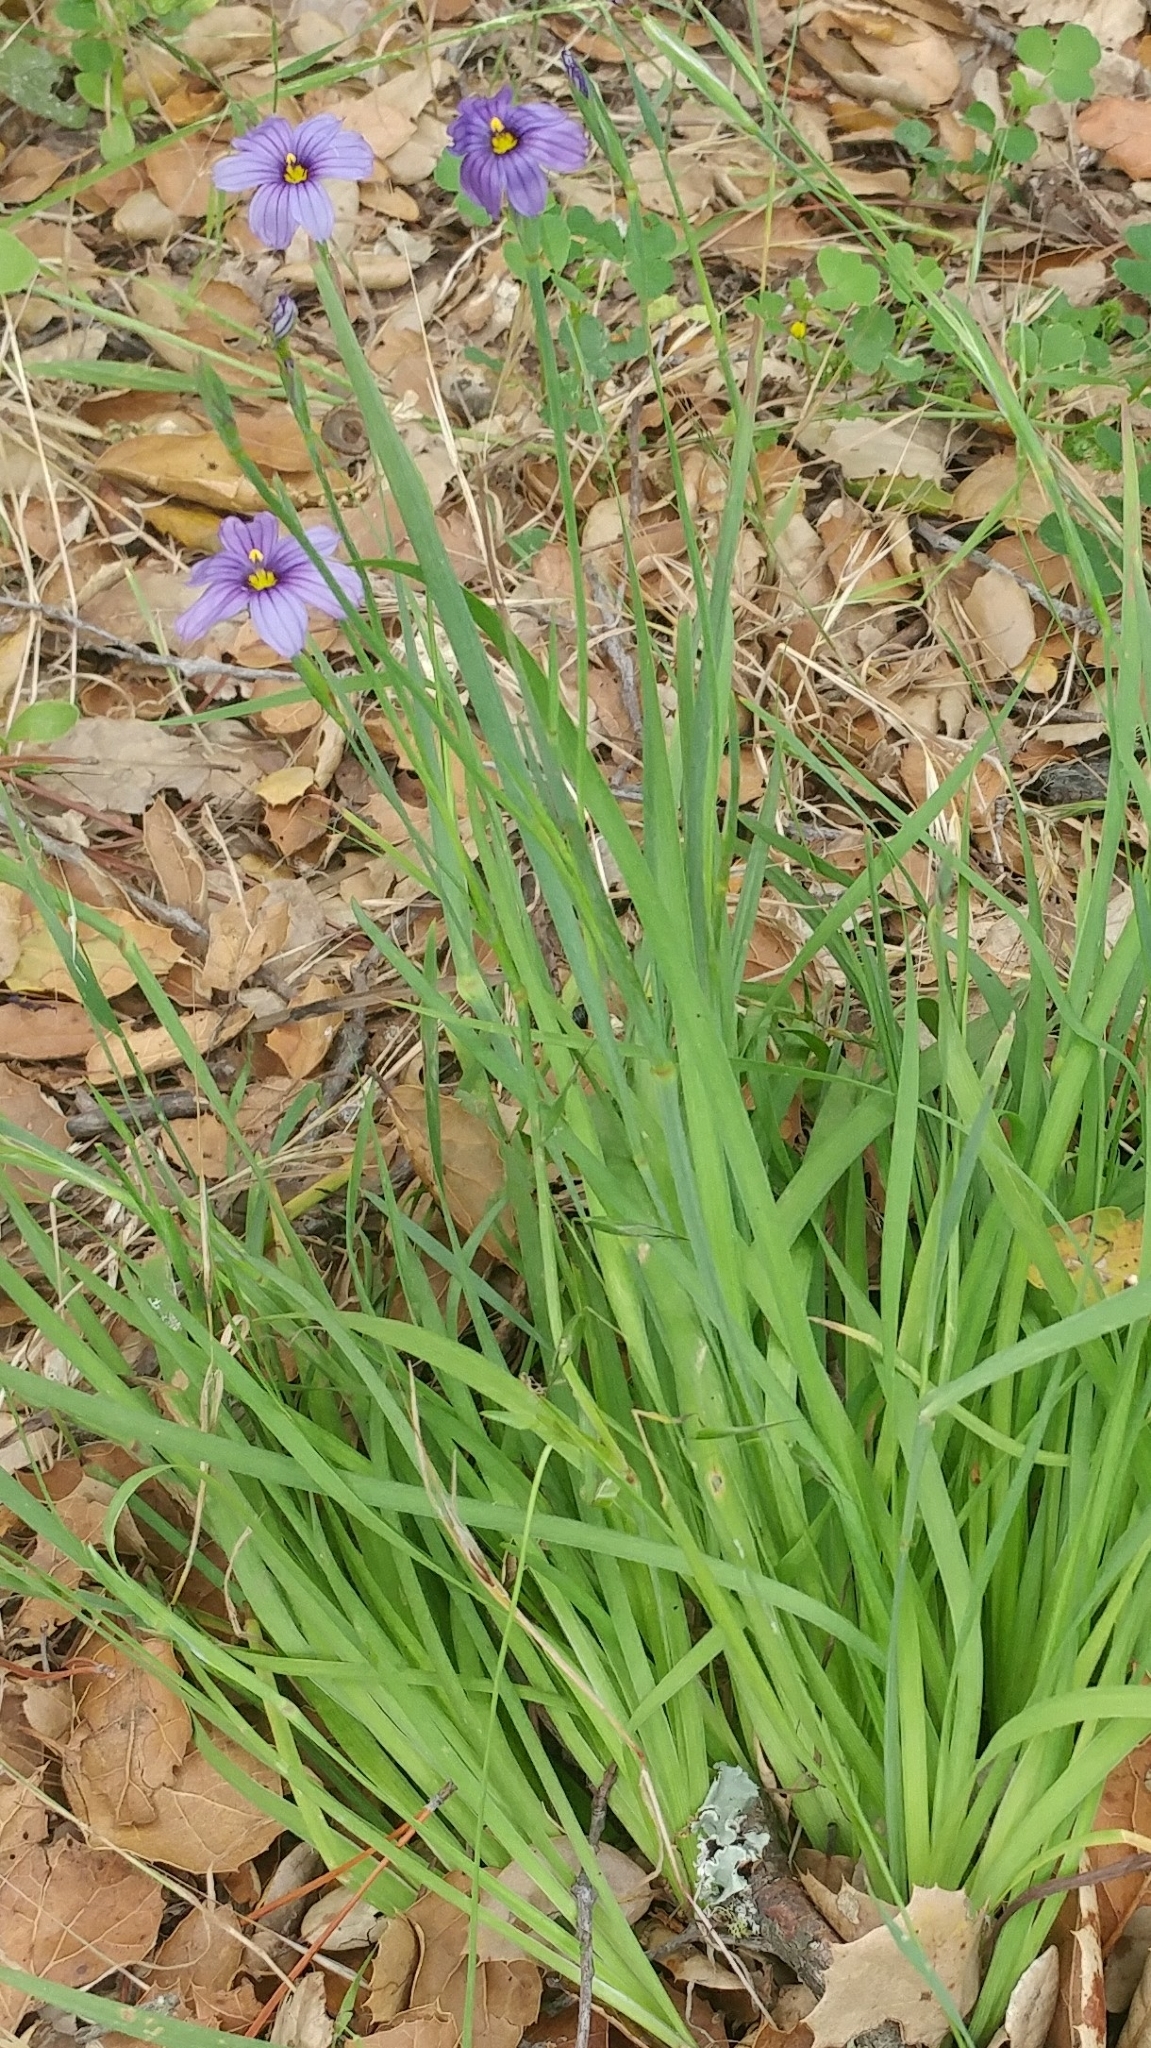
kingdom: Plantae
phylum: Tracheophyta
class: Liliopsida
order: Asparagales
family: Iridaceae
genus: Sisyrinchium
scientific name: Sisyrinchium bellum
